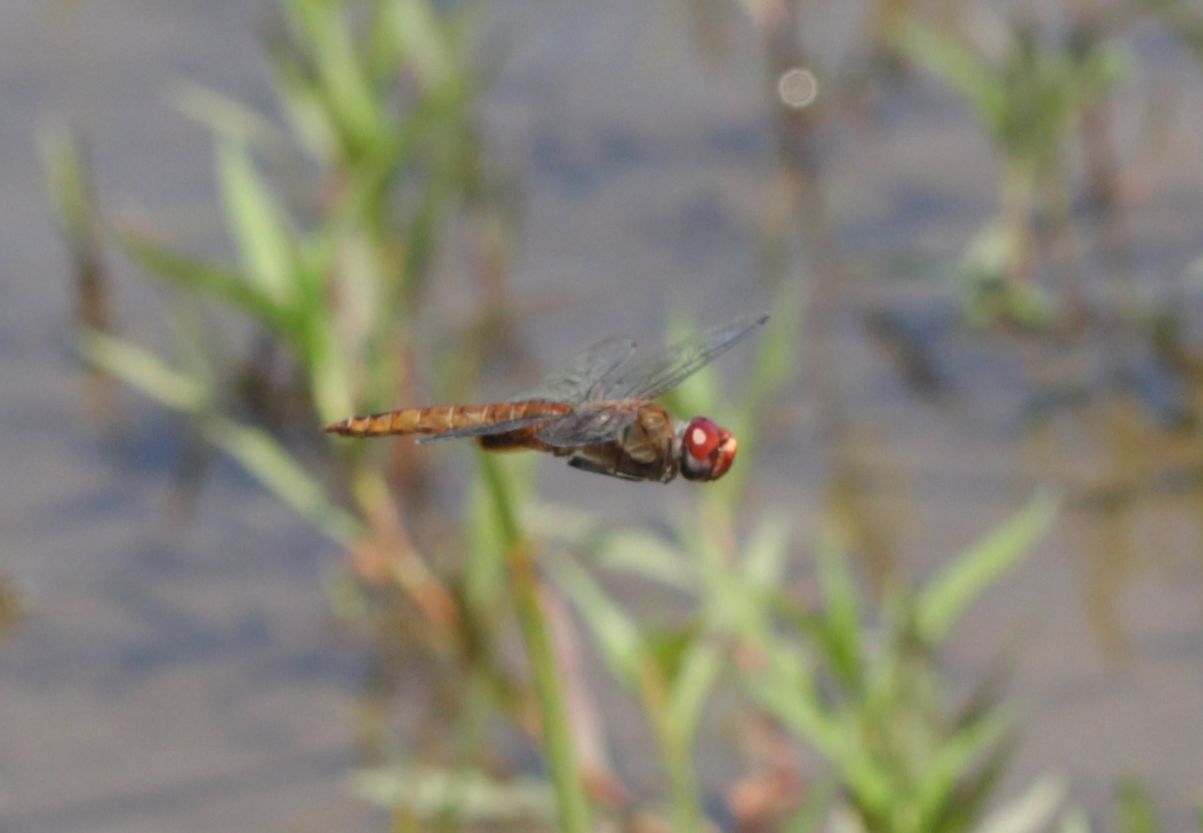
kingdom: Animalia
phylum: Arthropoda
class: Insecta
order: Odonata
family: Libellulidae
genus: Pantala
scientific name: Pantala hymenaea
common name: Spot-winged glider
